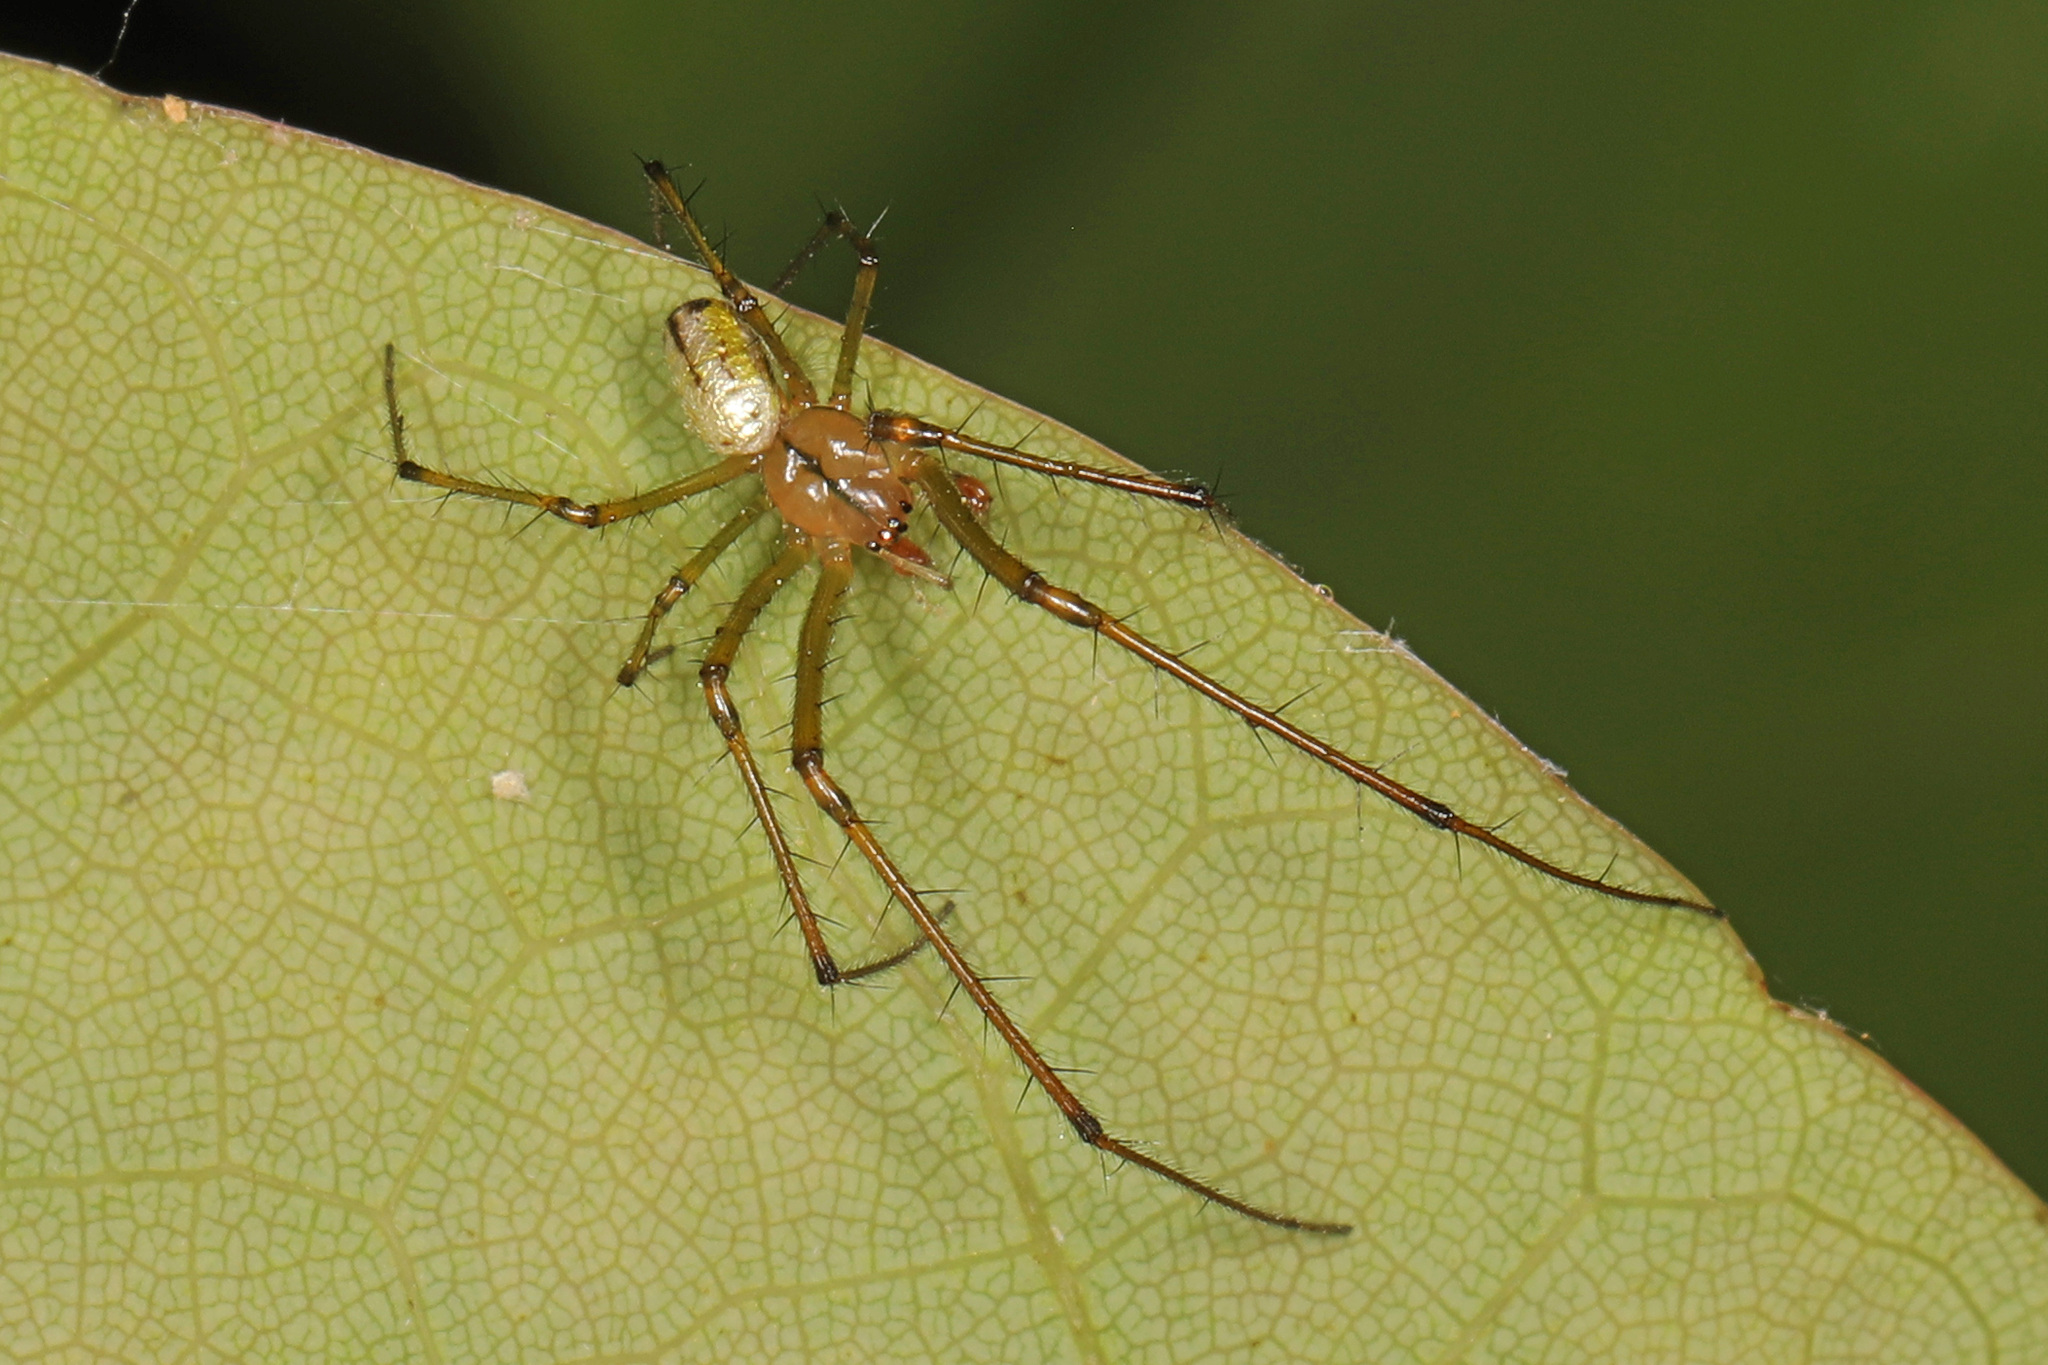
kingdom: Animalia
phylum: Arthropoda
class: Arachnida
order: Araneae
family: Tetragnathidae
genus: Leucauge
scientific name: Leucauge venusta
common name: Longjawed orb weavers
